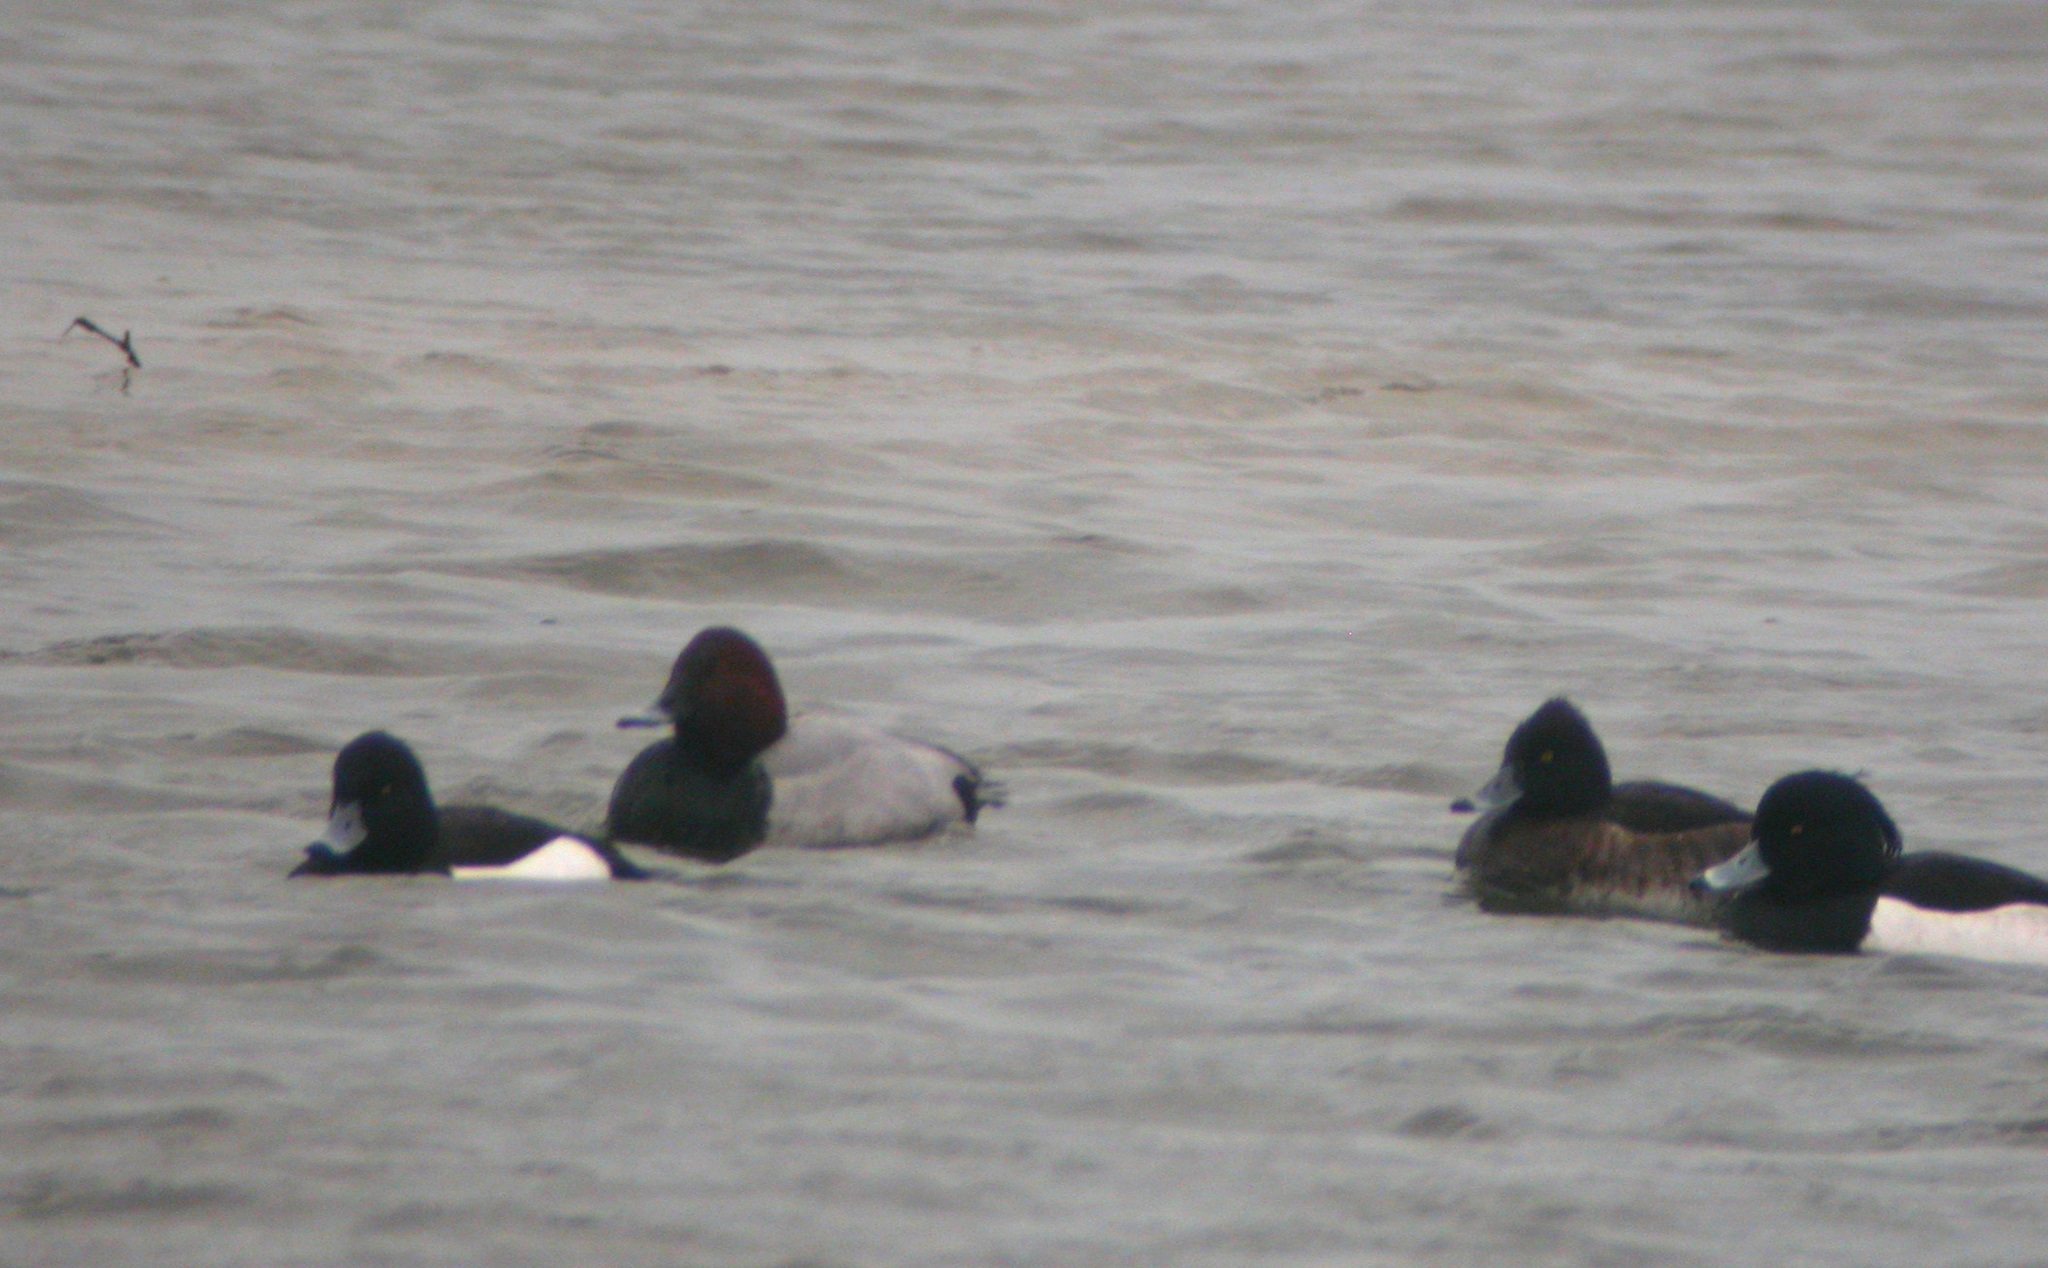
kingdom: Animalia
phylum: Chordata
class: Aves
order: Anseriformes
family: Anatidae
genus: Aythya
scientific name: Aythya ferina
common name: Common pochard
